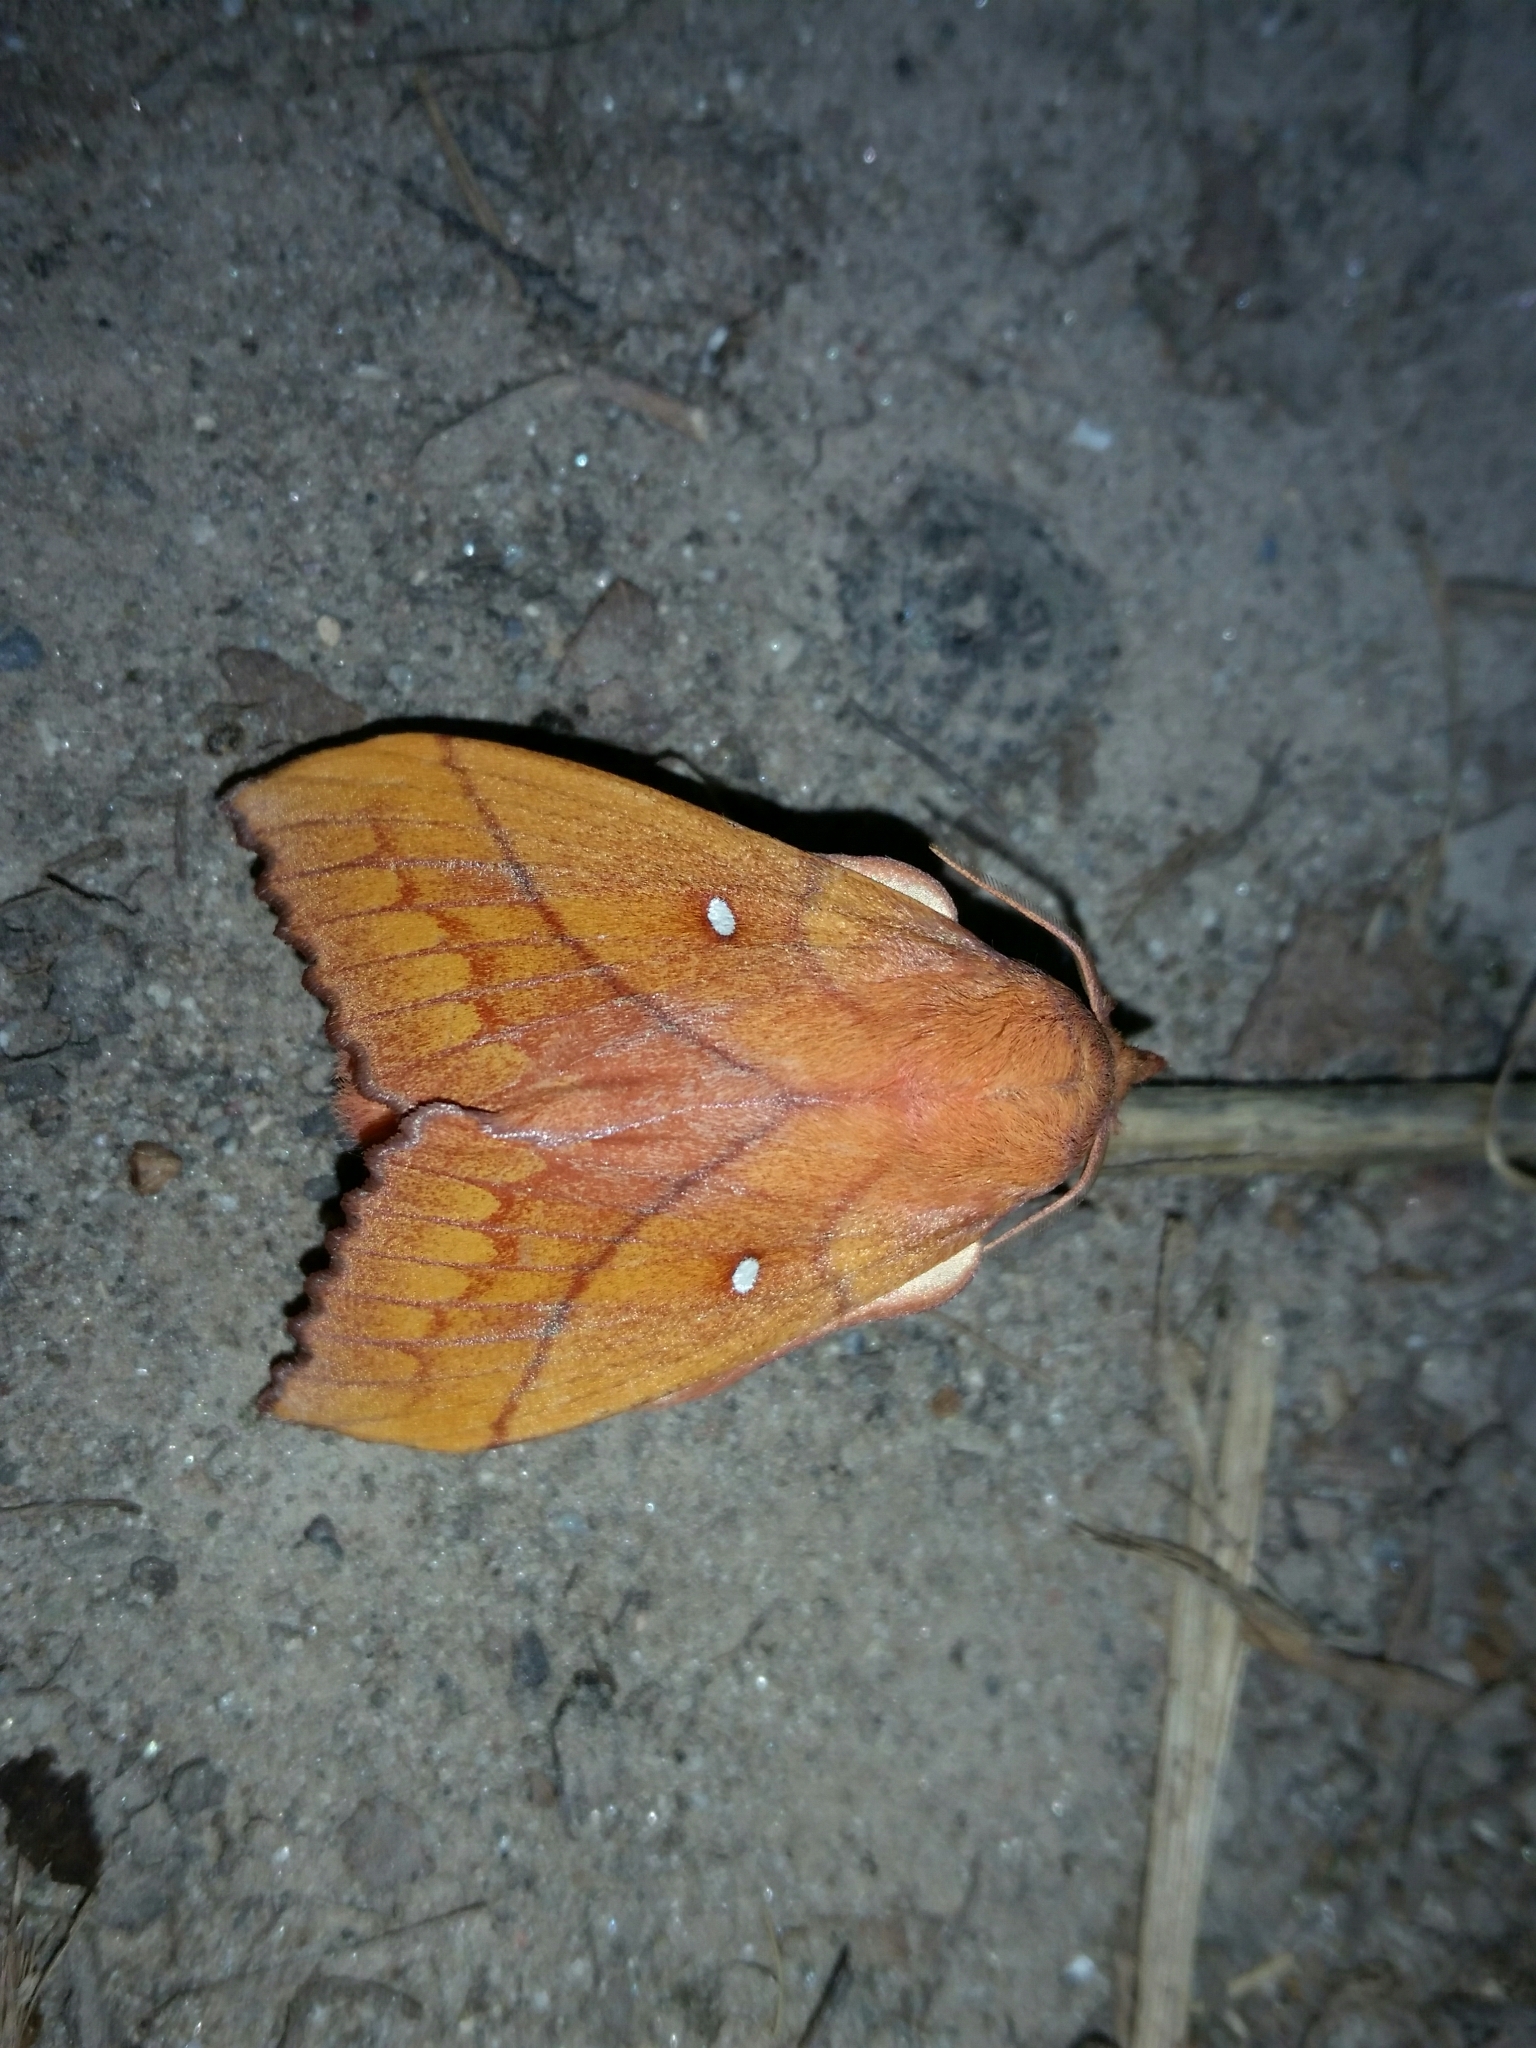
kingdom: Animalia
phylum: Arthropoda
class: Insecta
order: Lepidoptera
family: Lasiocampidae
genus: Odonestis
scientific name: Odonestis pruni
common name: Plum lappet
